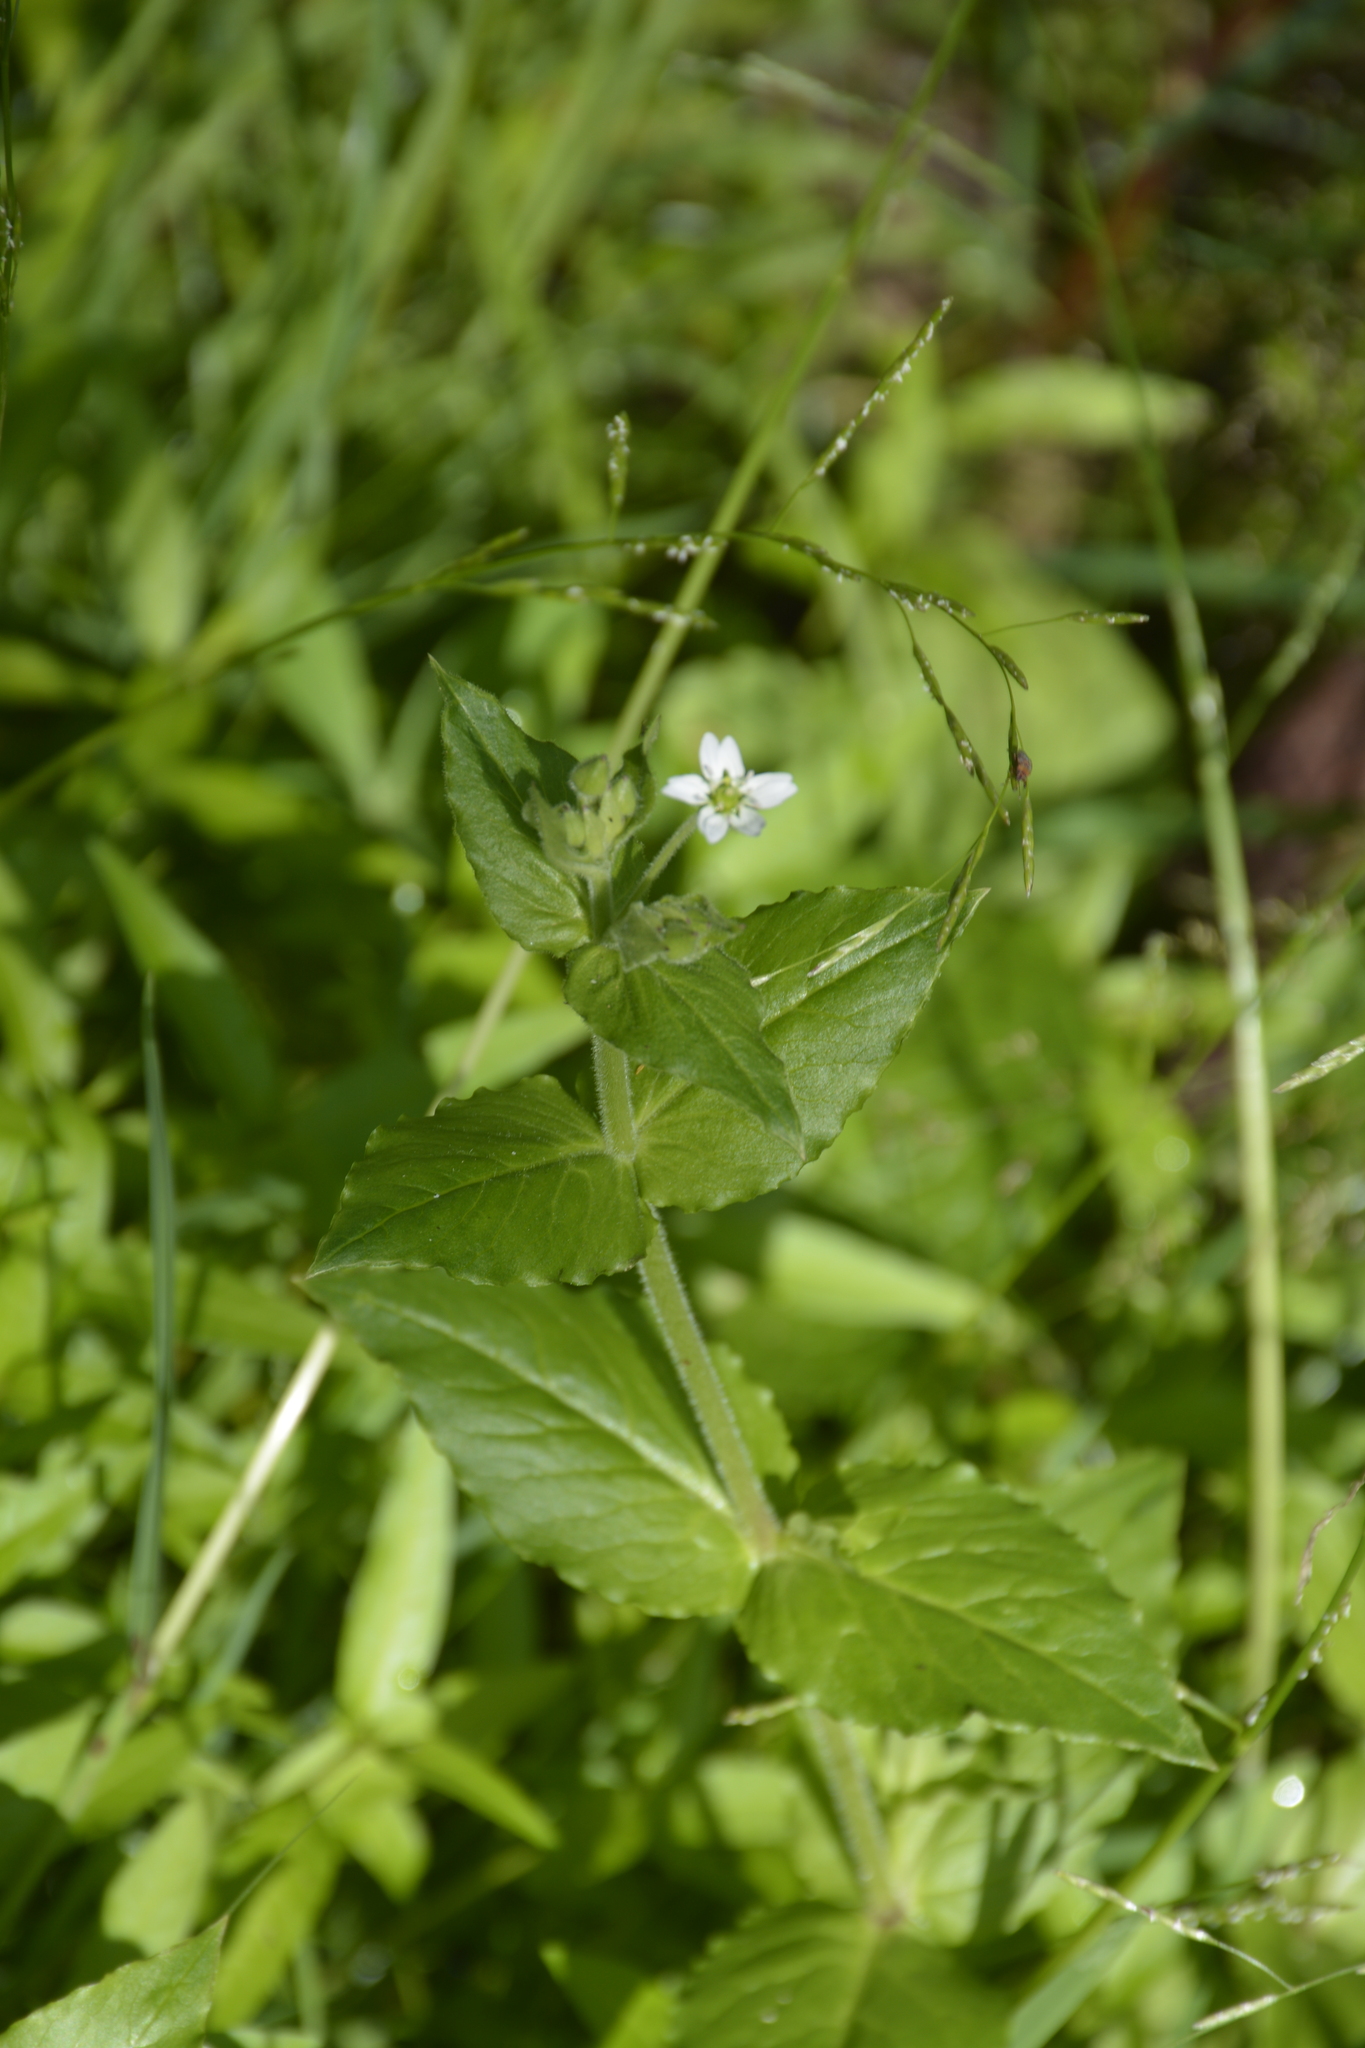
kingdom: Plantae
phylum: Tracheophyta
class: Magnoliopsida
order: Caryophyllales
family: Caryophyllaceae
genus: Stellaria
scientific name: Stellaria aquatica
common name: Water chickweed
